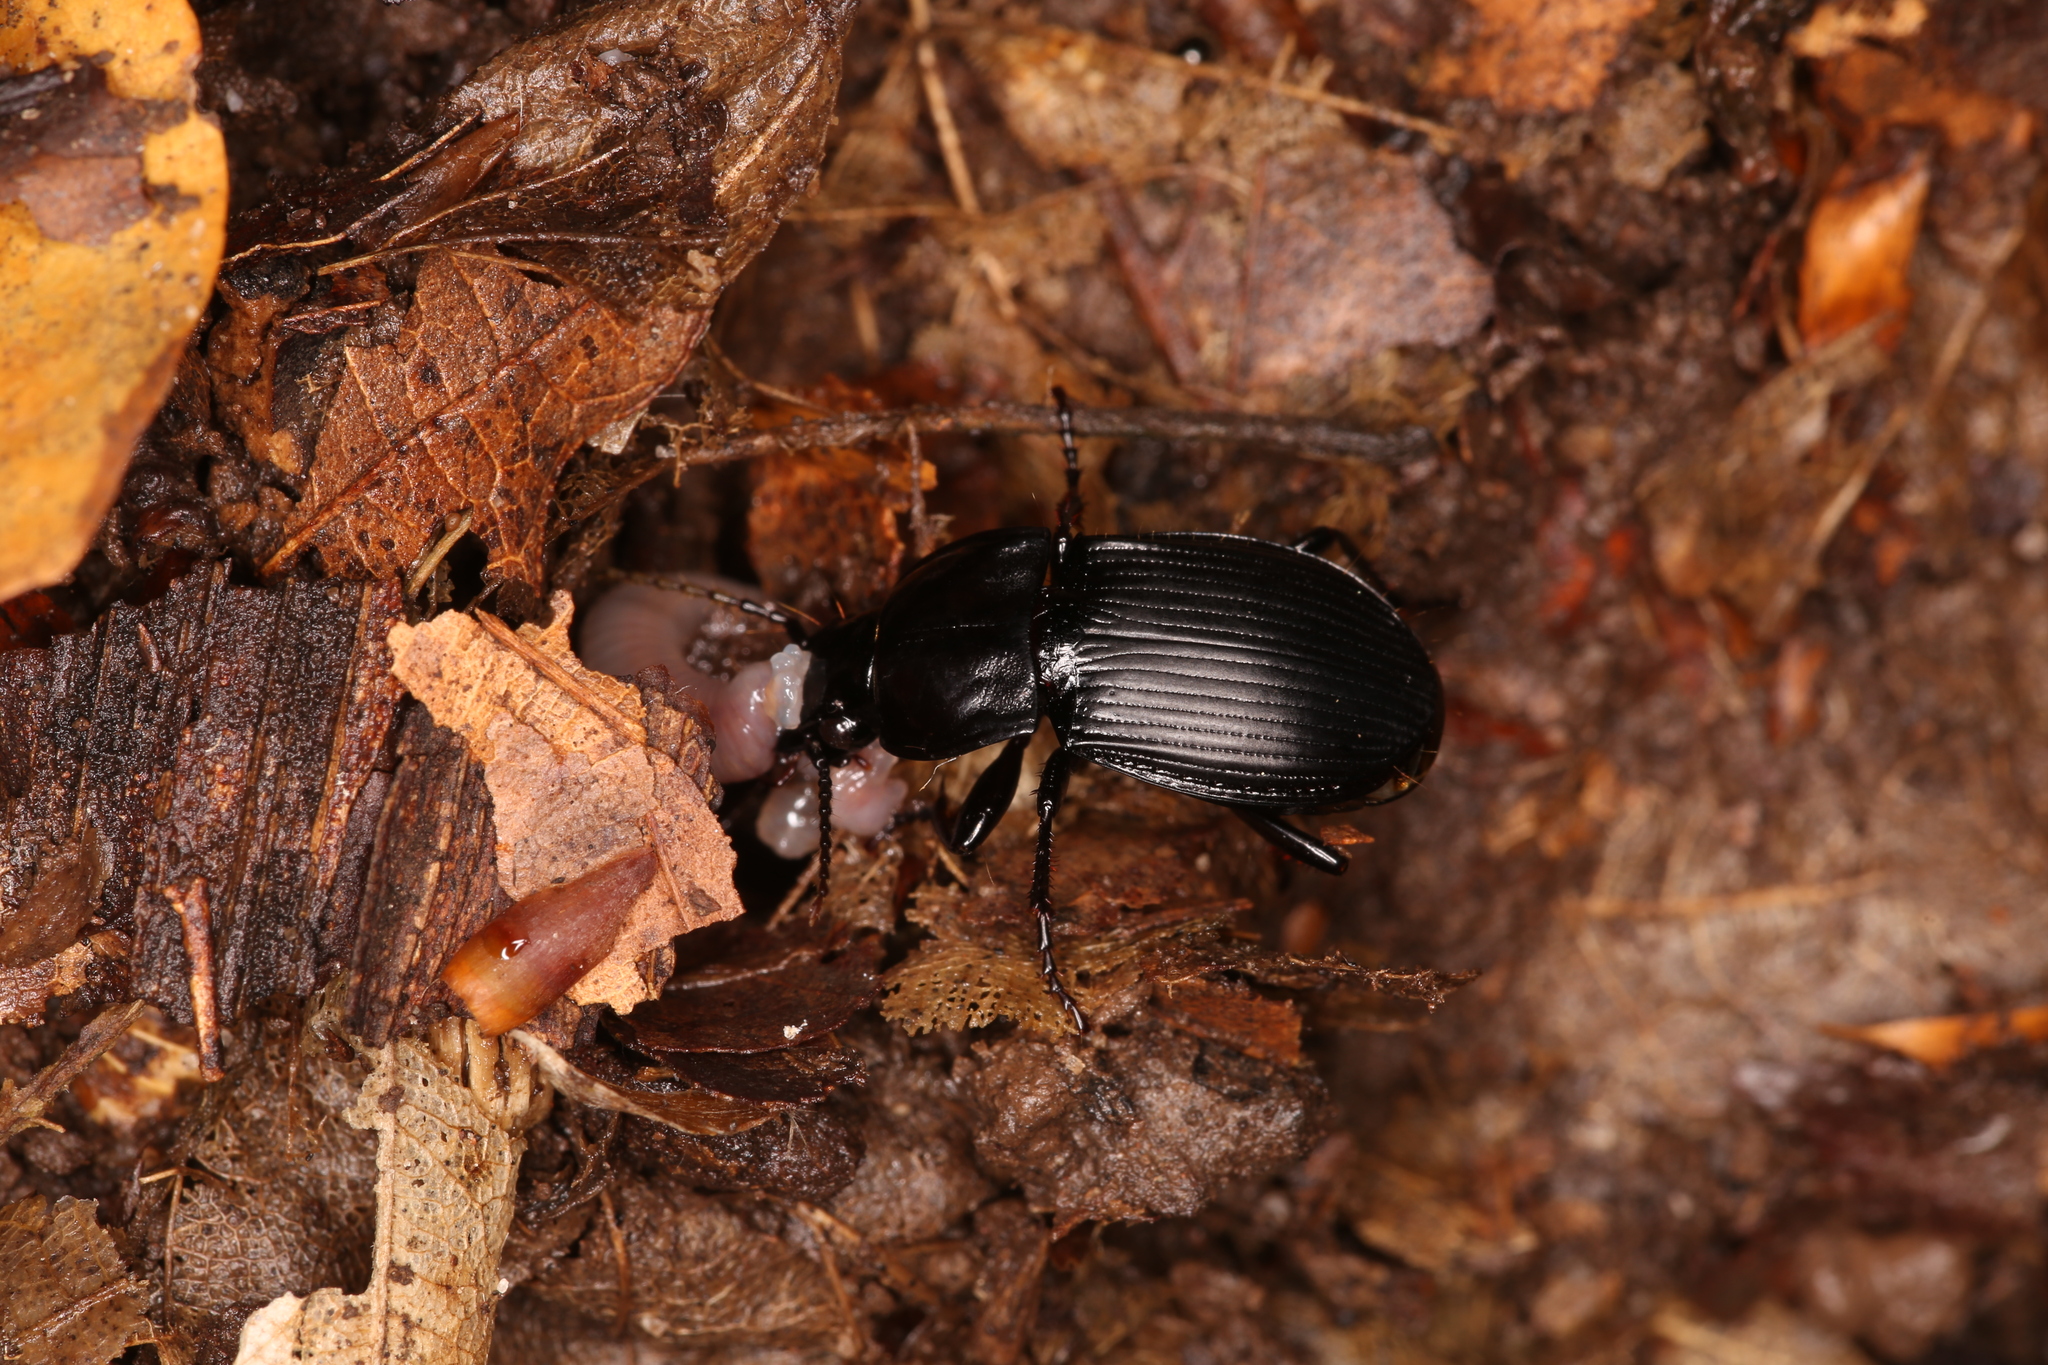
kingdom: Animalia
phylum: Arthropoda
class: Insecta
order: Coleoptera
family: Carabidae
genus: Abax
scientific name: Abax carinatus
